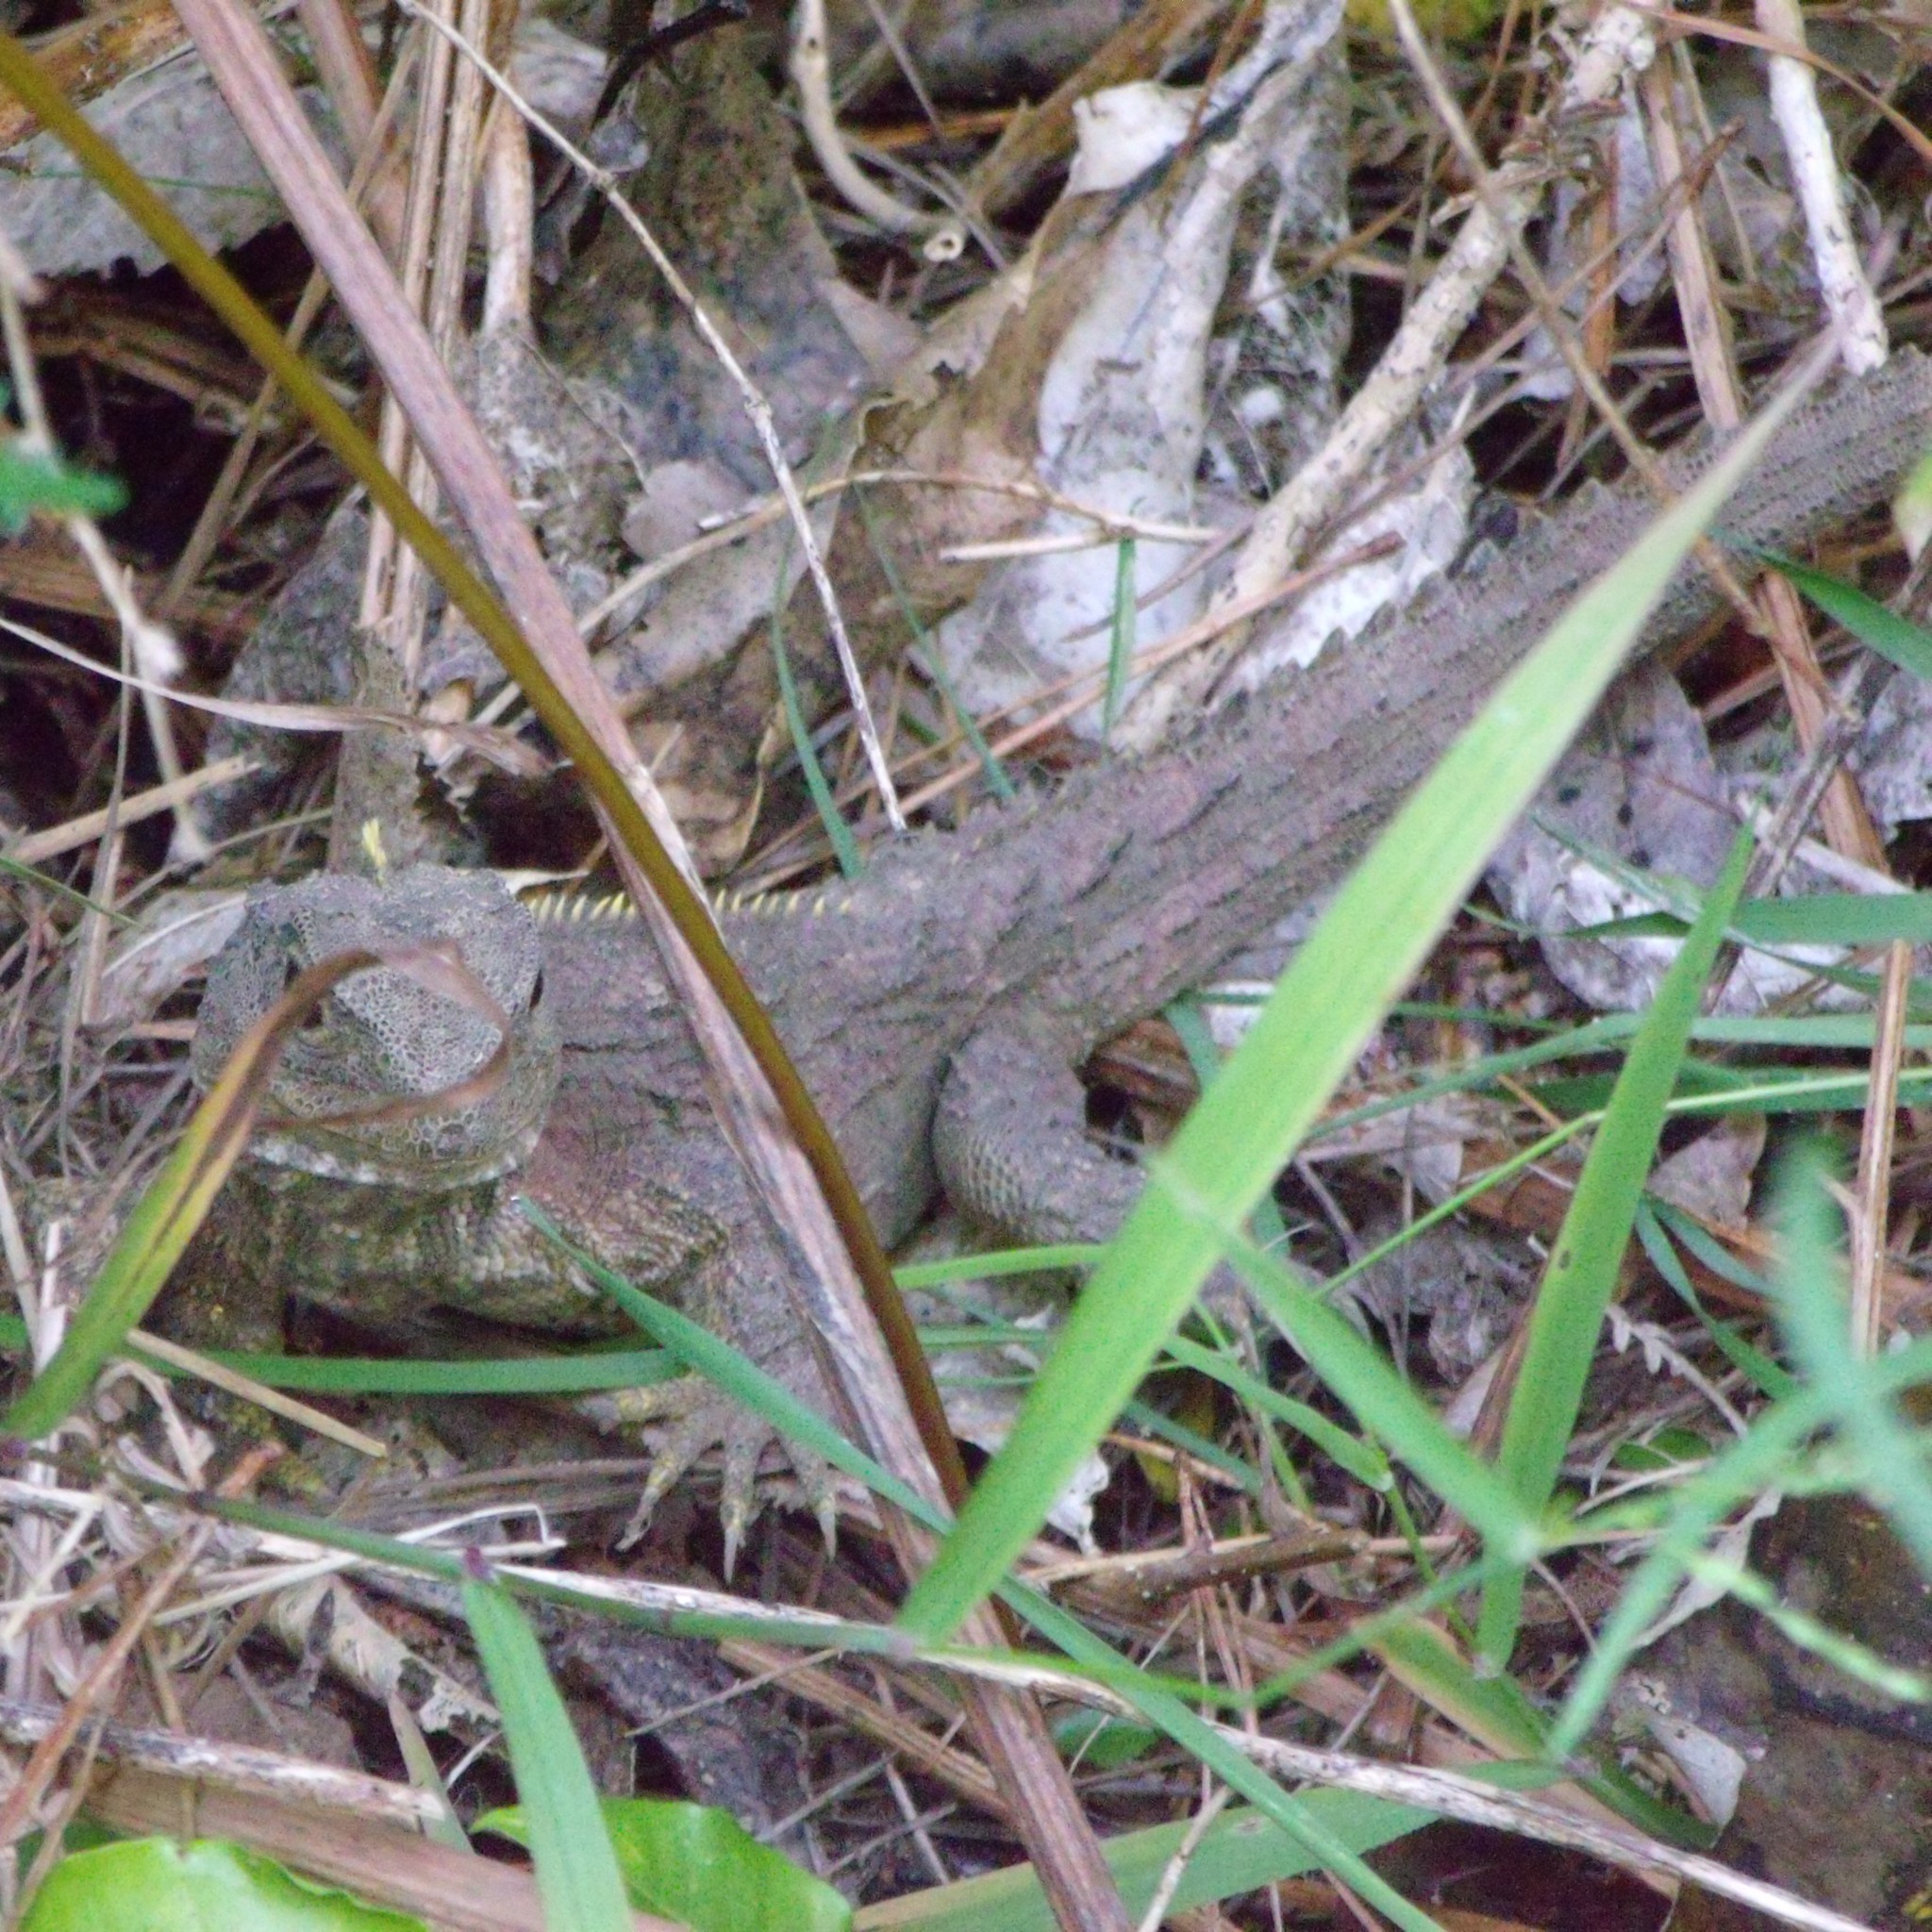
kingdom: Animalia
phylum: Chordata
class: Sphenodontia
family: Sphenodontidae
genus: Sphenodon
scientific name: Sphenodon punctatus
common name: Tuatara
